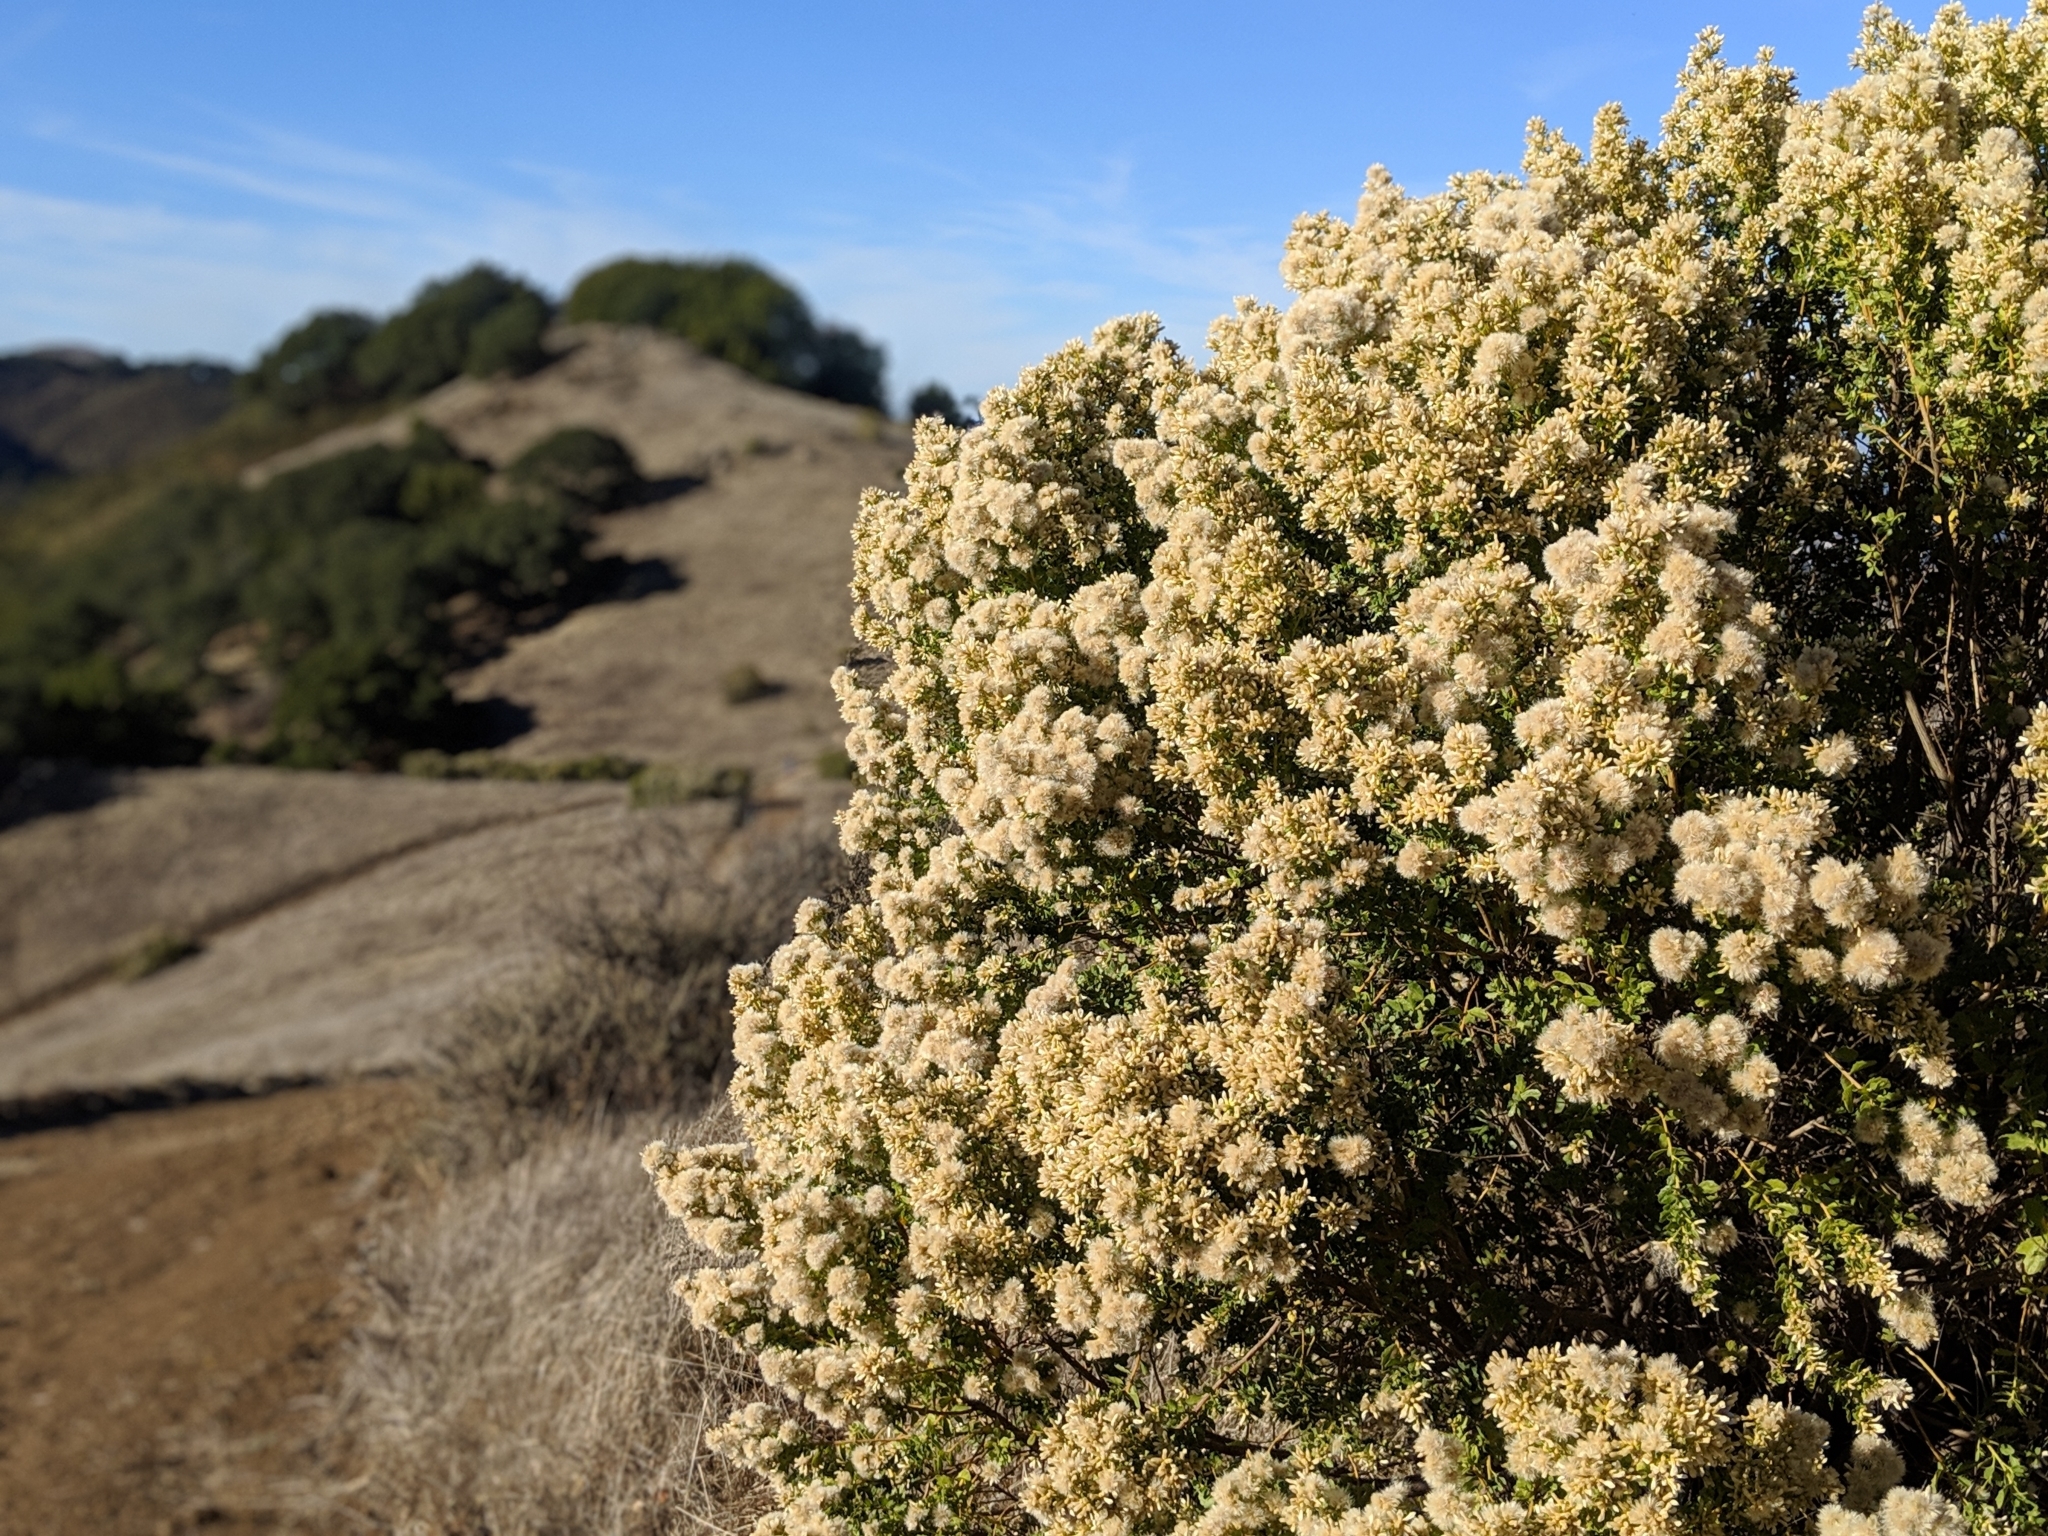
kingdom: Plantae
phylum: Tracheophyta
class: Magnoliopsida
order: Asterales
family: Asteraceae
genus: Baccharis
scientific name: Baccharis pilularis
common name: Coyotebrush
